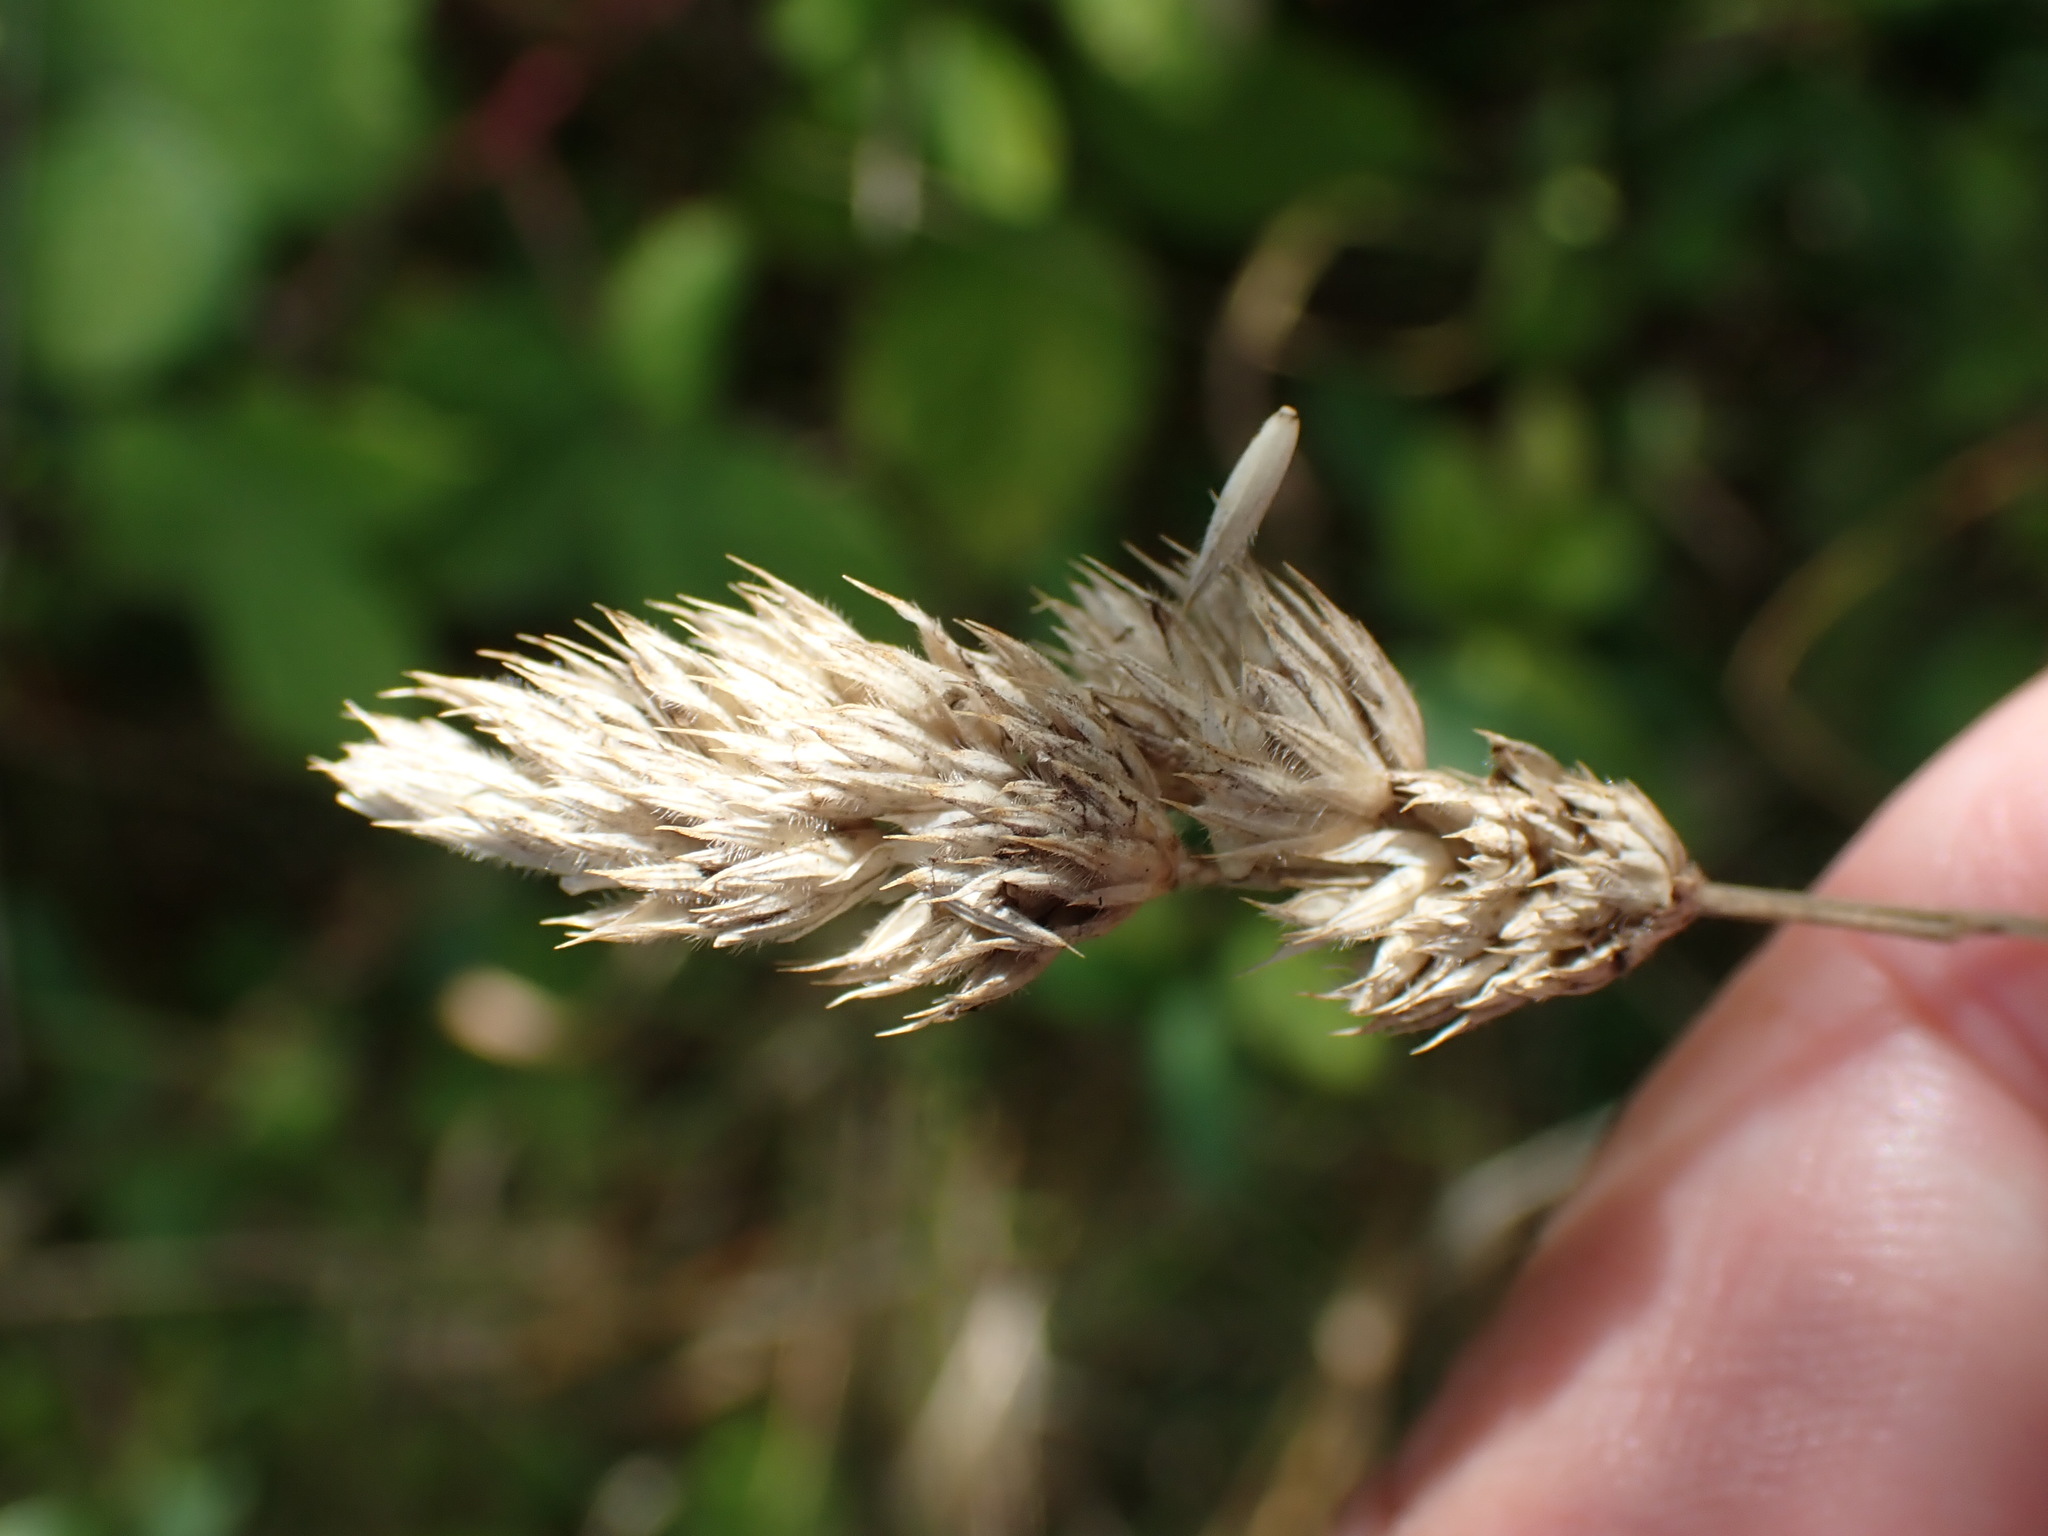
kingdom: Plantae
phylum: Tracheophyta
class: Liliopsida
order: Poales
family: Poaceae
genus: Dactylis
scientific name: Dactylis glomerata
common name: Orchardgrass
